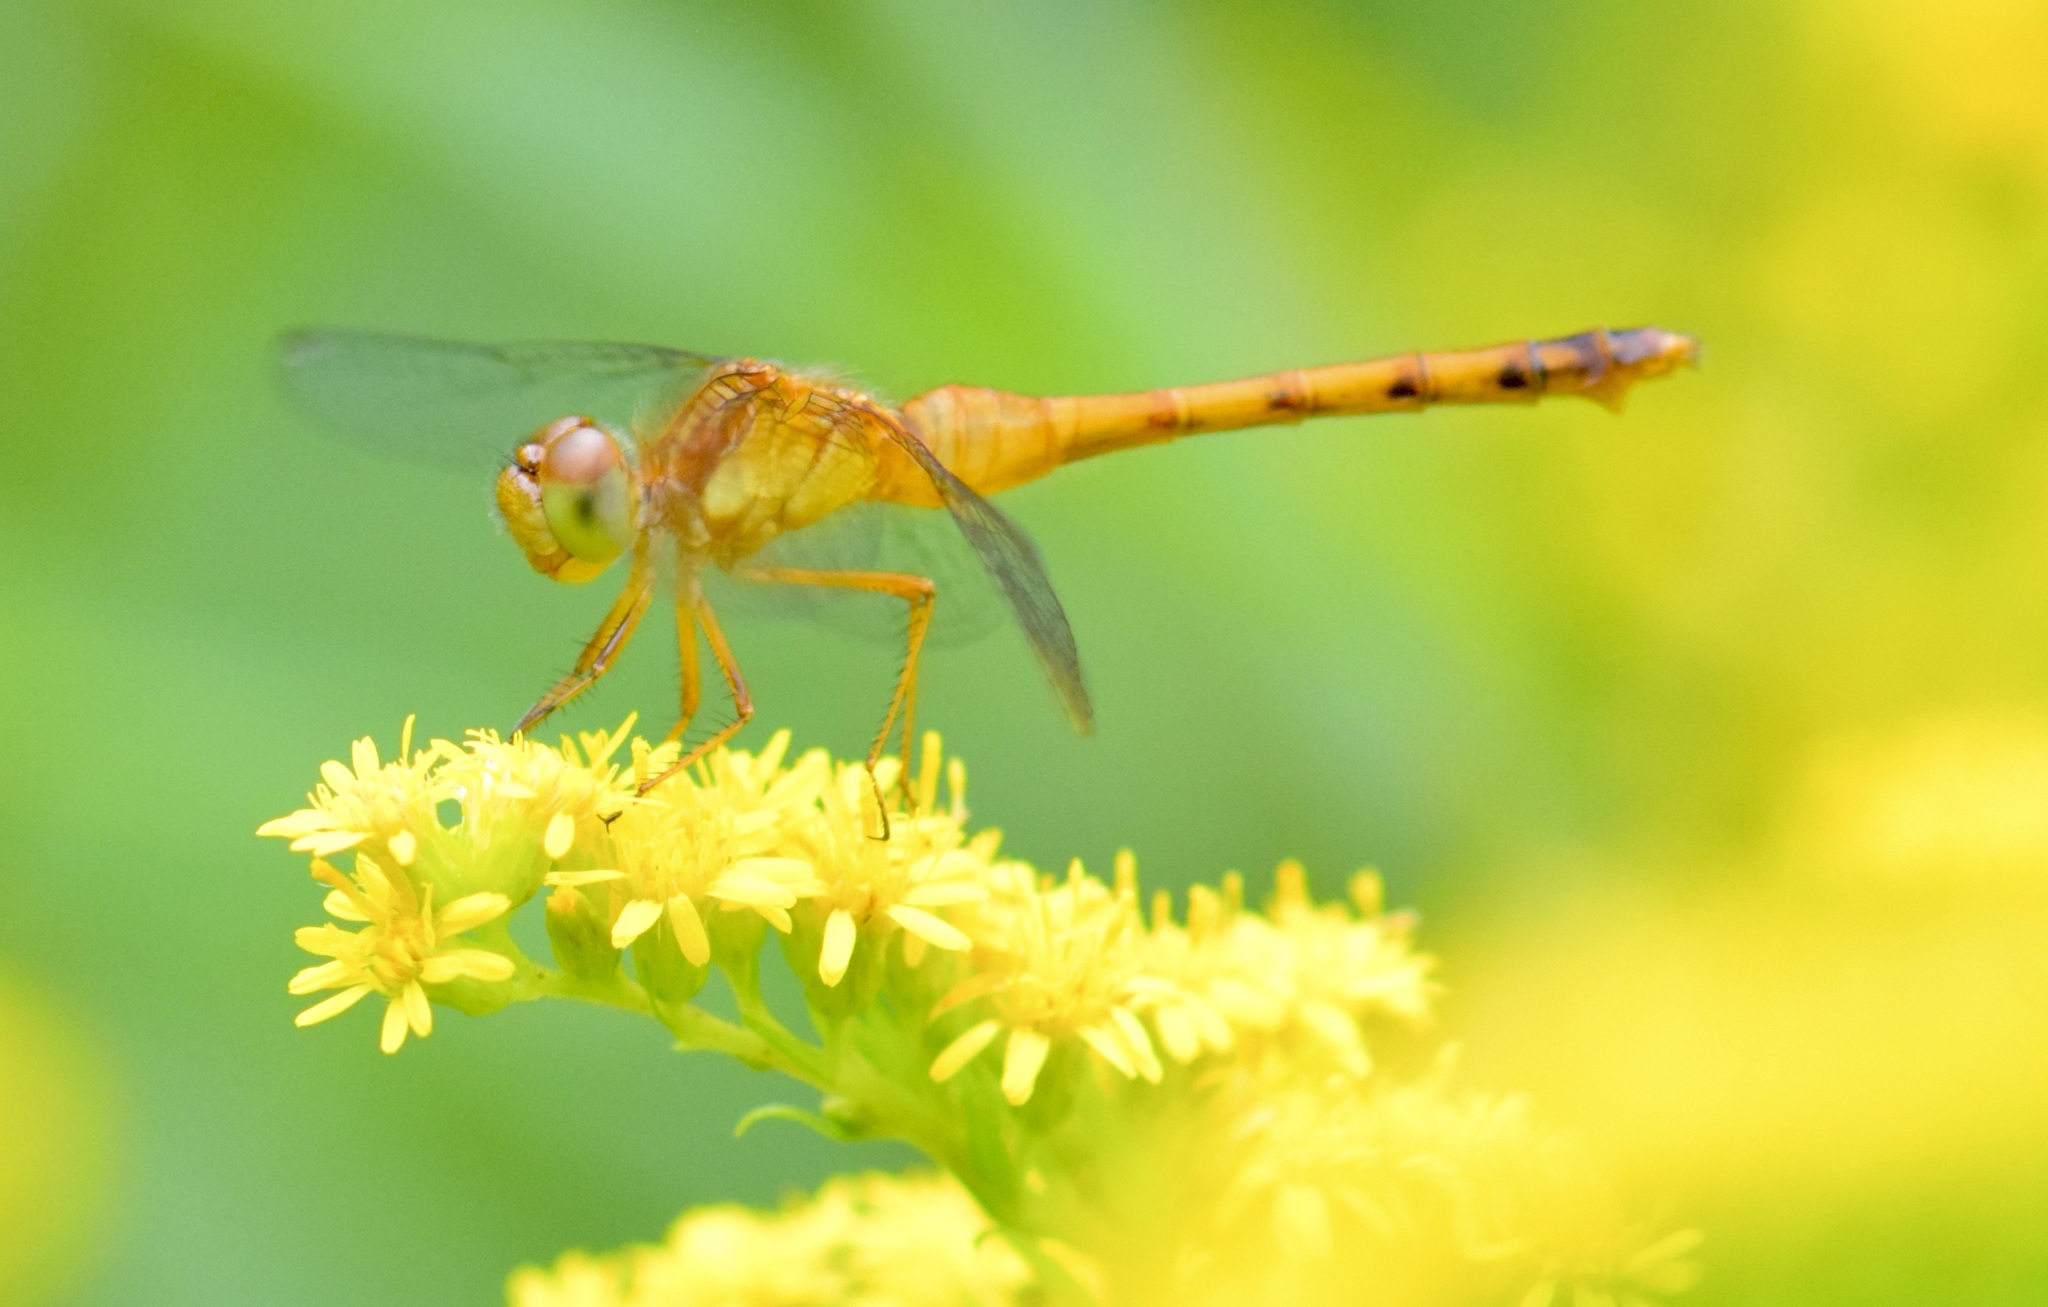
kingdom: Animalia
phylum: Arthropoda
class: Insecta
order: Odonata
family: Libellulidae
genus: Sympetrum
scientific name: Sympetrum vicinum
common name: Autumn meadowhawk
